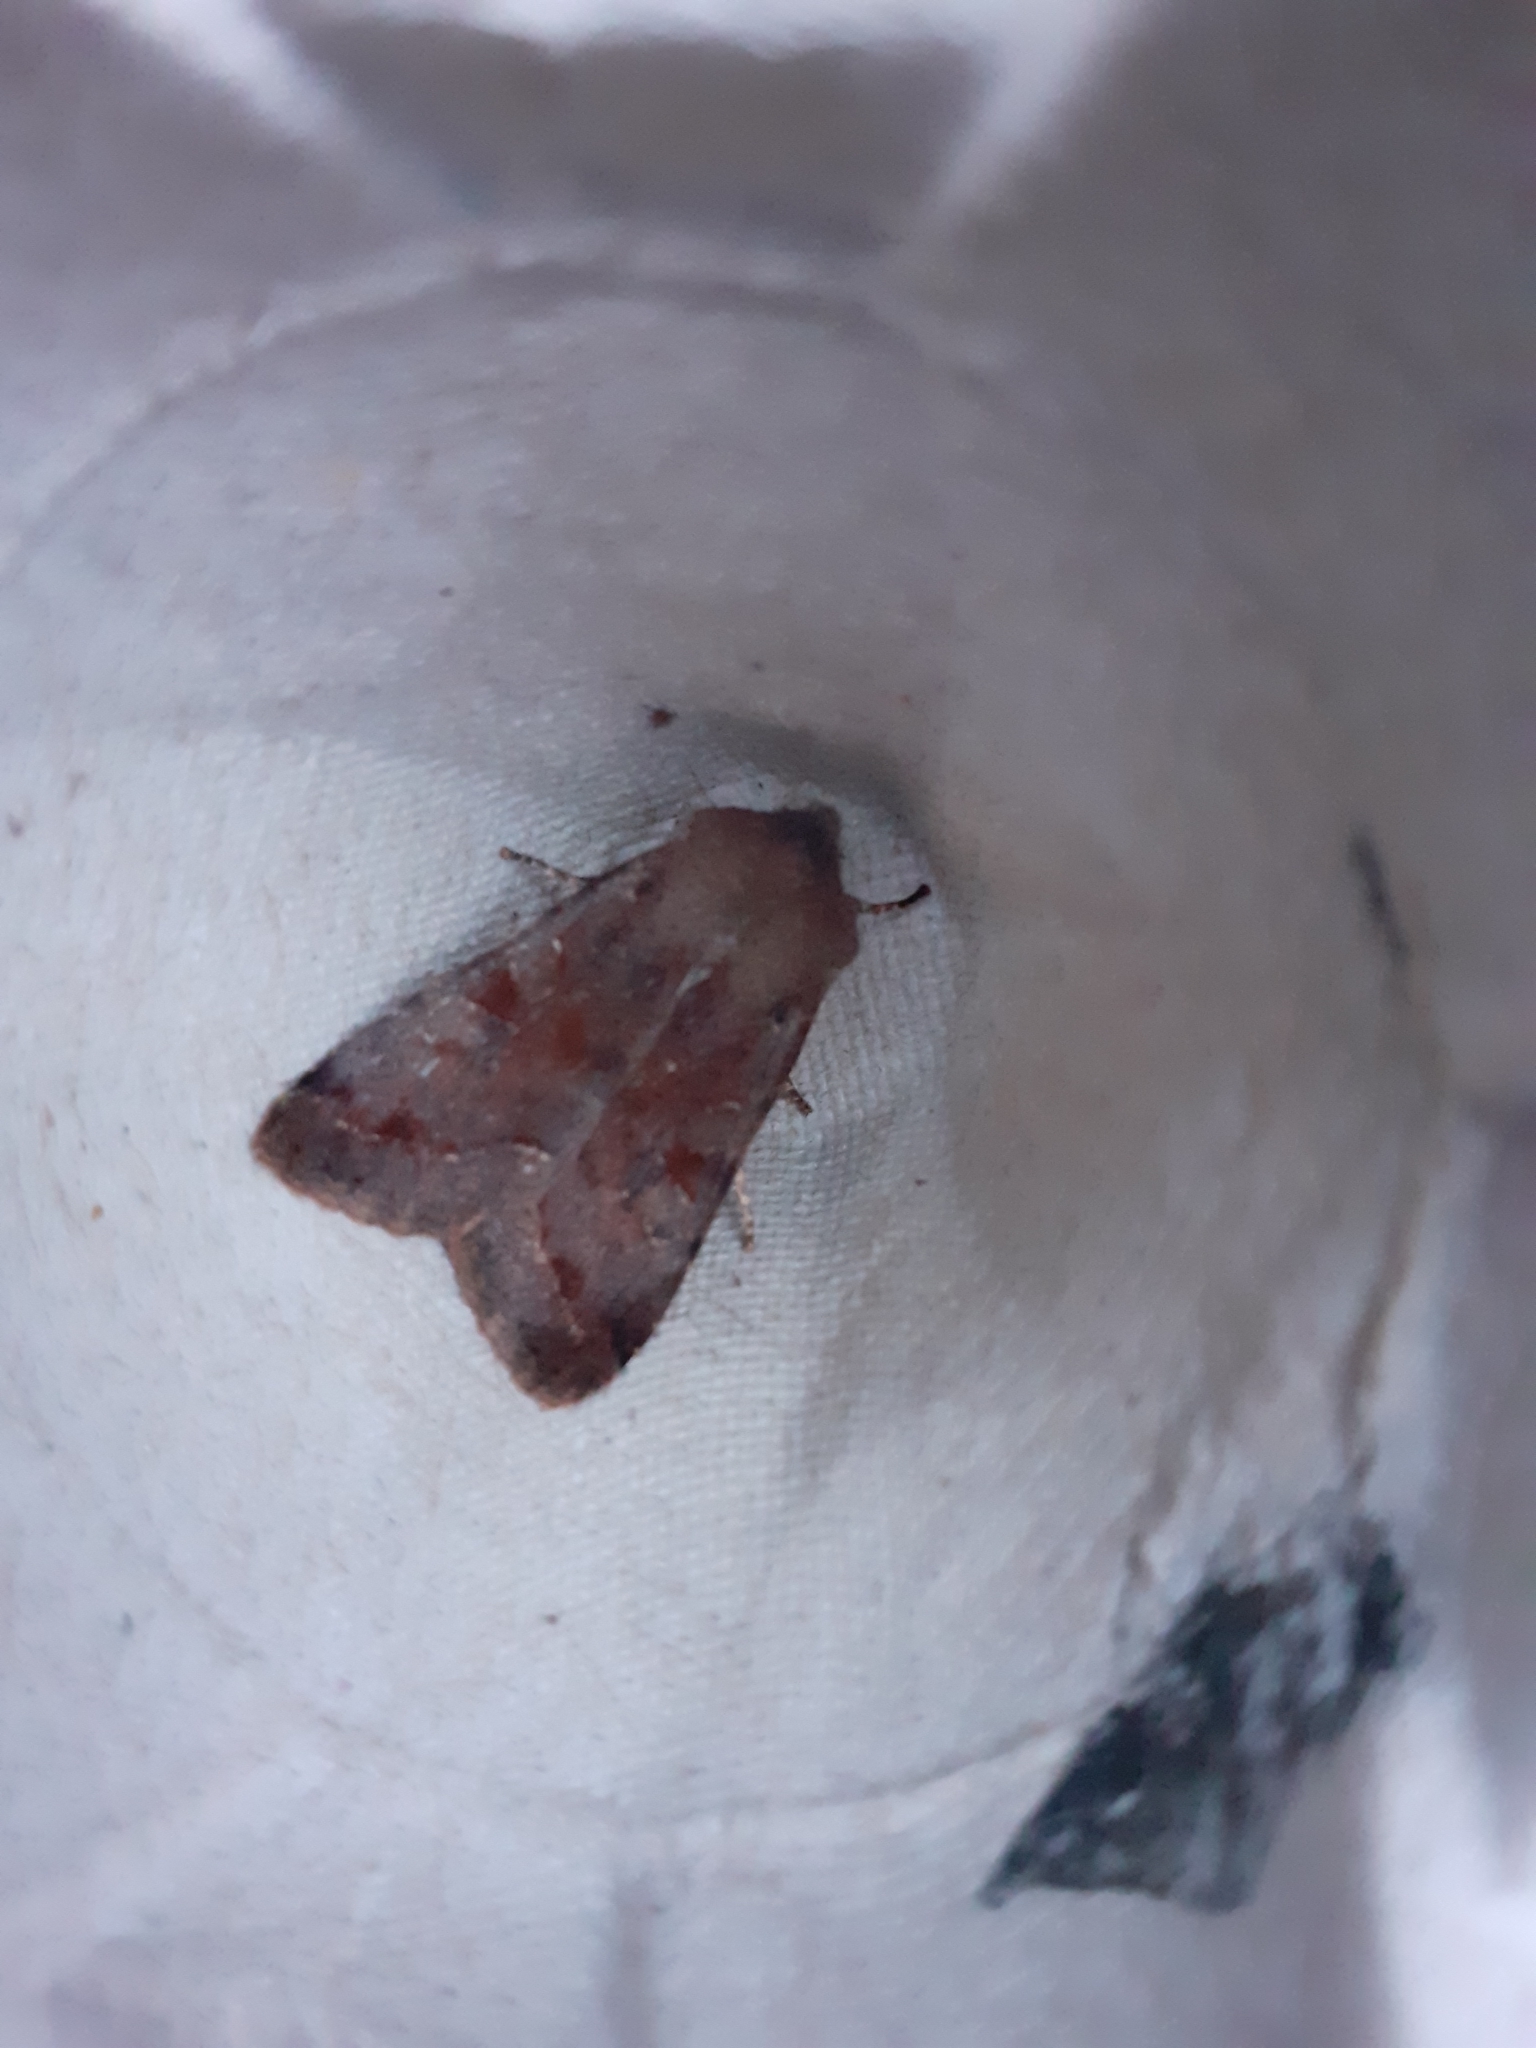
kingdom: Animalia
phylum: Arthropoda
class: Insecta
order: Lepidoptera
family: Noctuidae
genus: Orthosia
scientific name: Orthosia incerta
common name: Clouded drab
